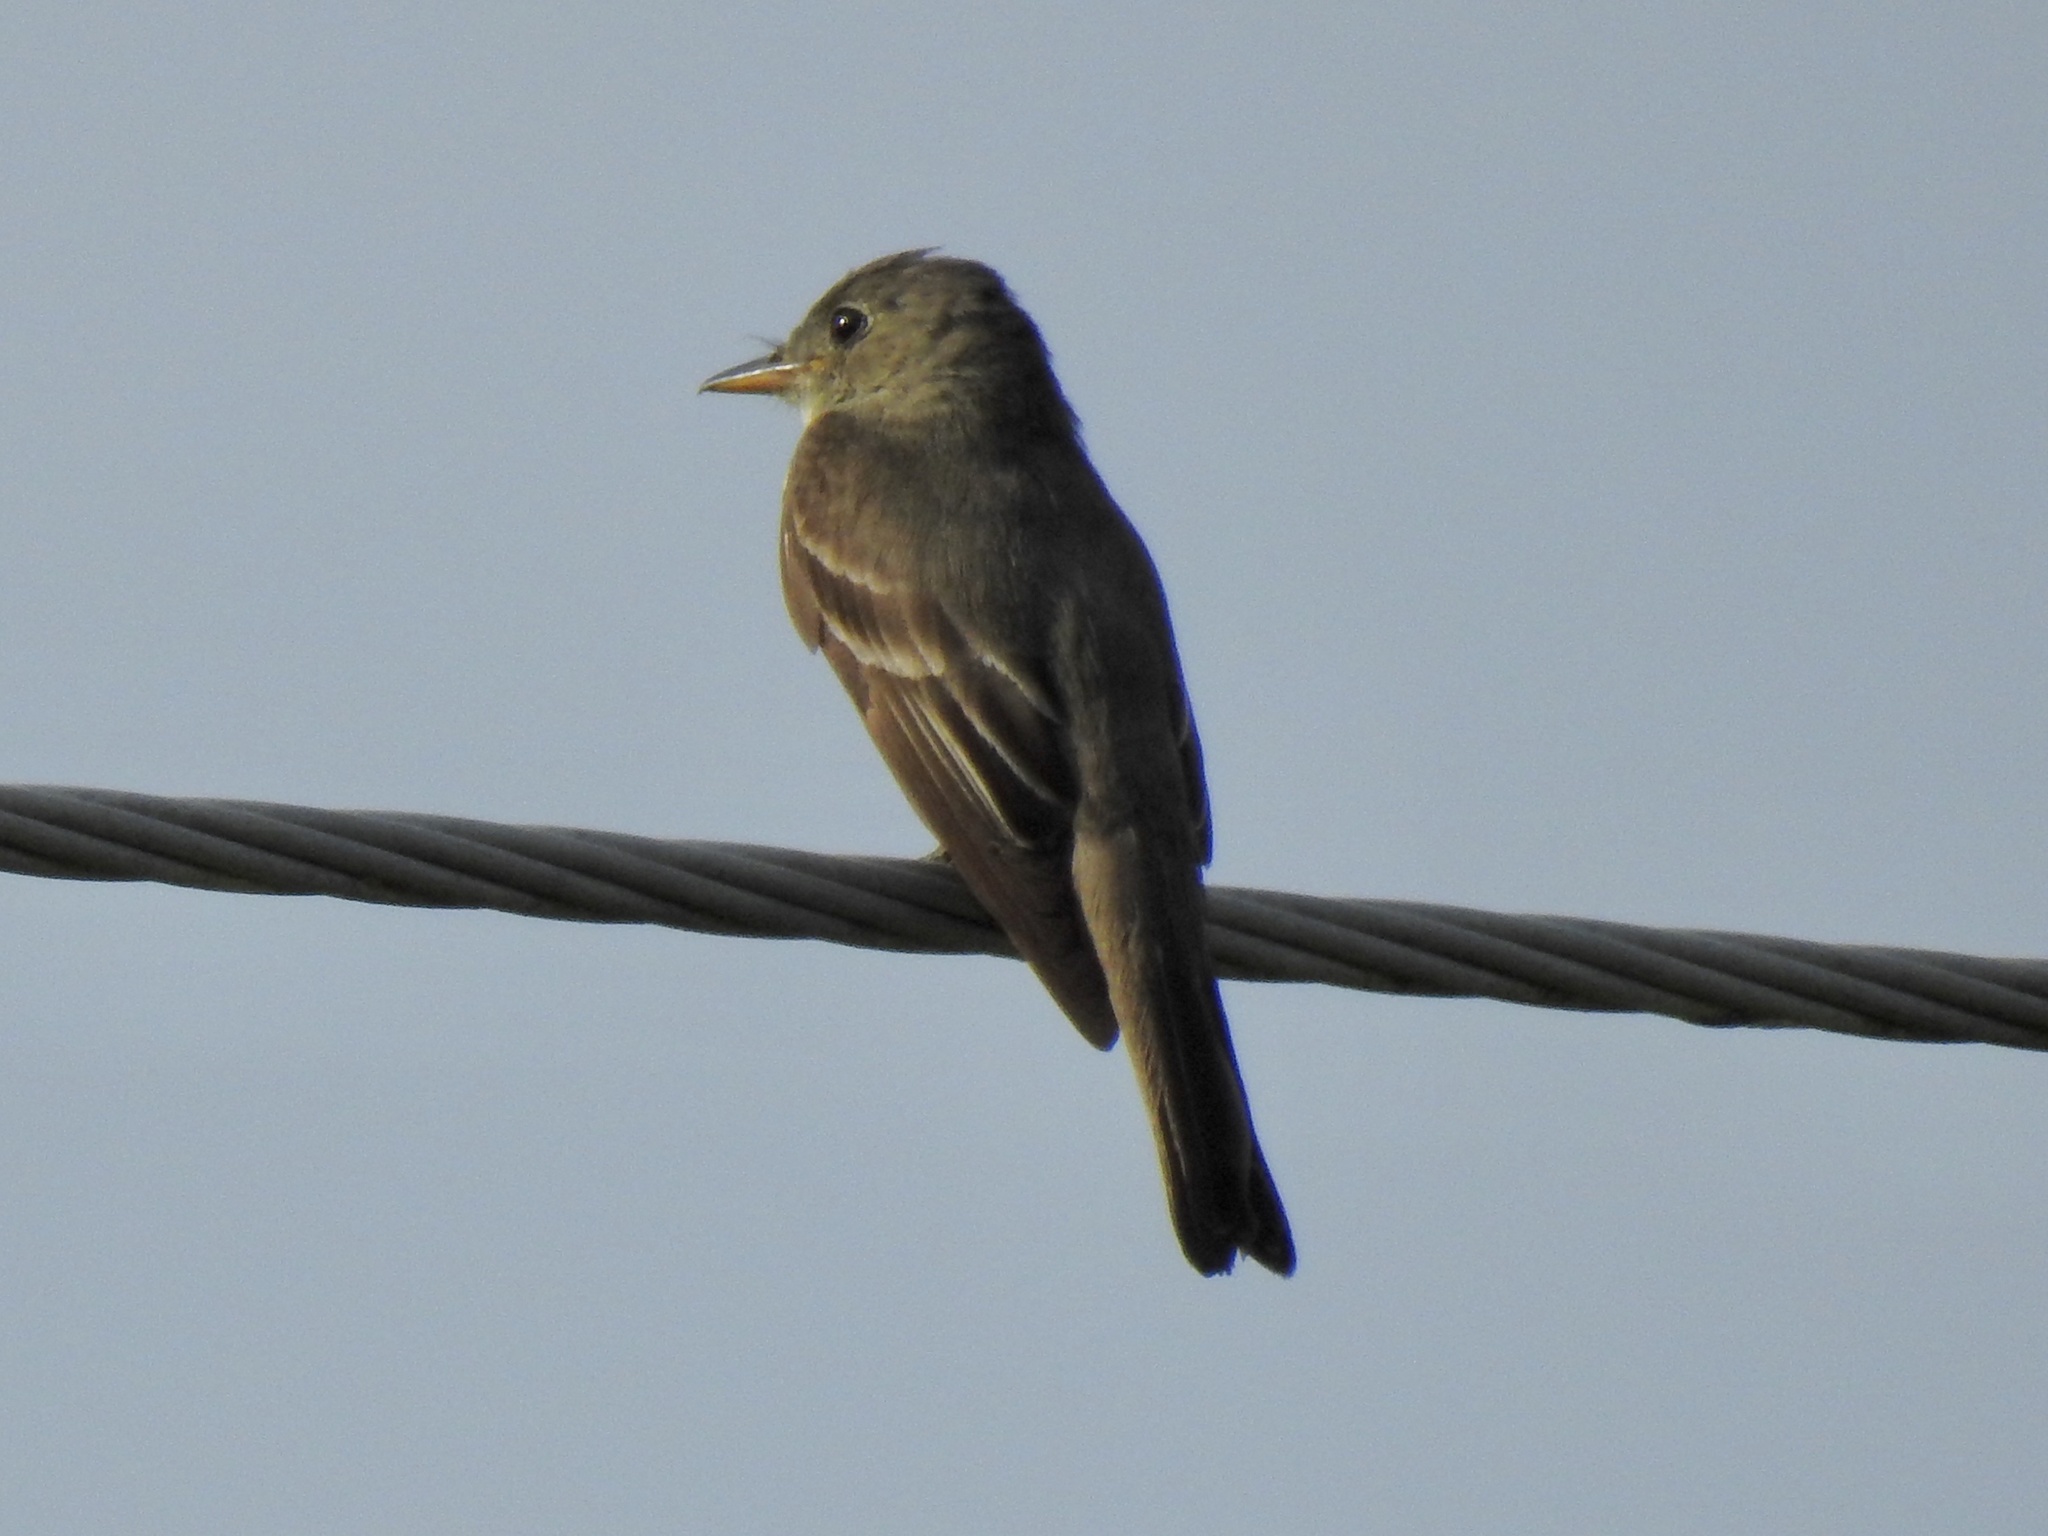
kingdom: Animalia
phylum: Chordata
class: Aves
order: Passeriformes
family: Tyrannidae
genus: Contopus
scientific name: Contopus virens
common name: Eastern wood-pewee
